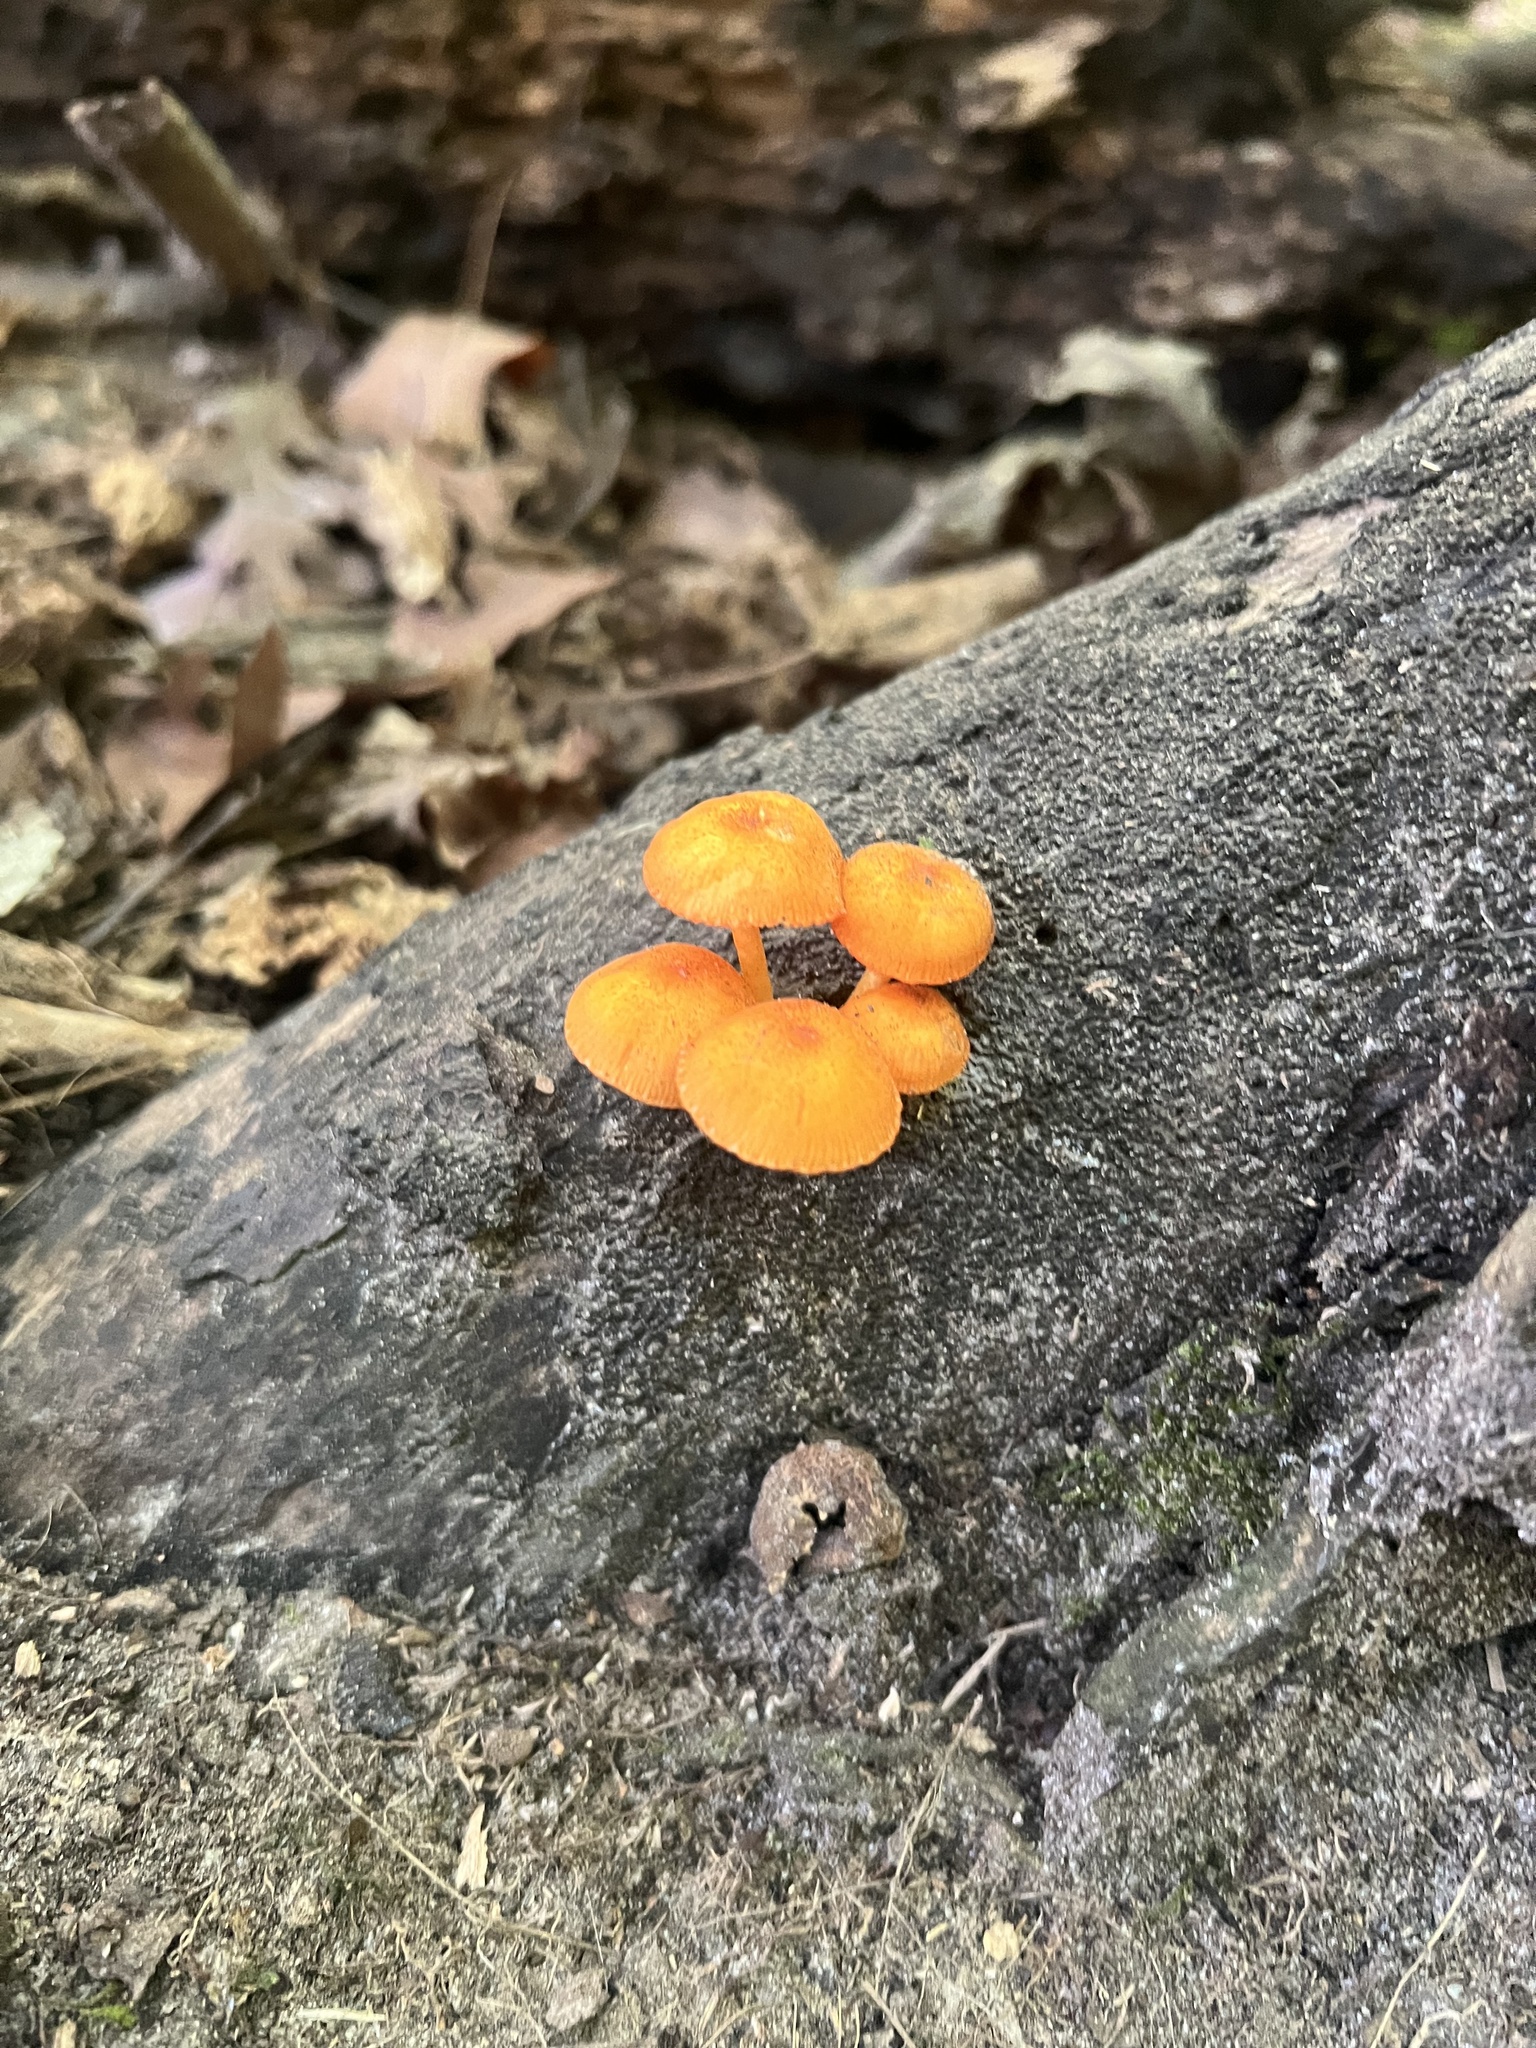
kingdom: Fungi
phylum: Basidiomycota
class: Agaricomycetes
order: Agaricales
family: Mycenaceae
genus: Mycena
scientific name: Mycena leaiana
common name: Orange mycena
